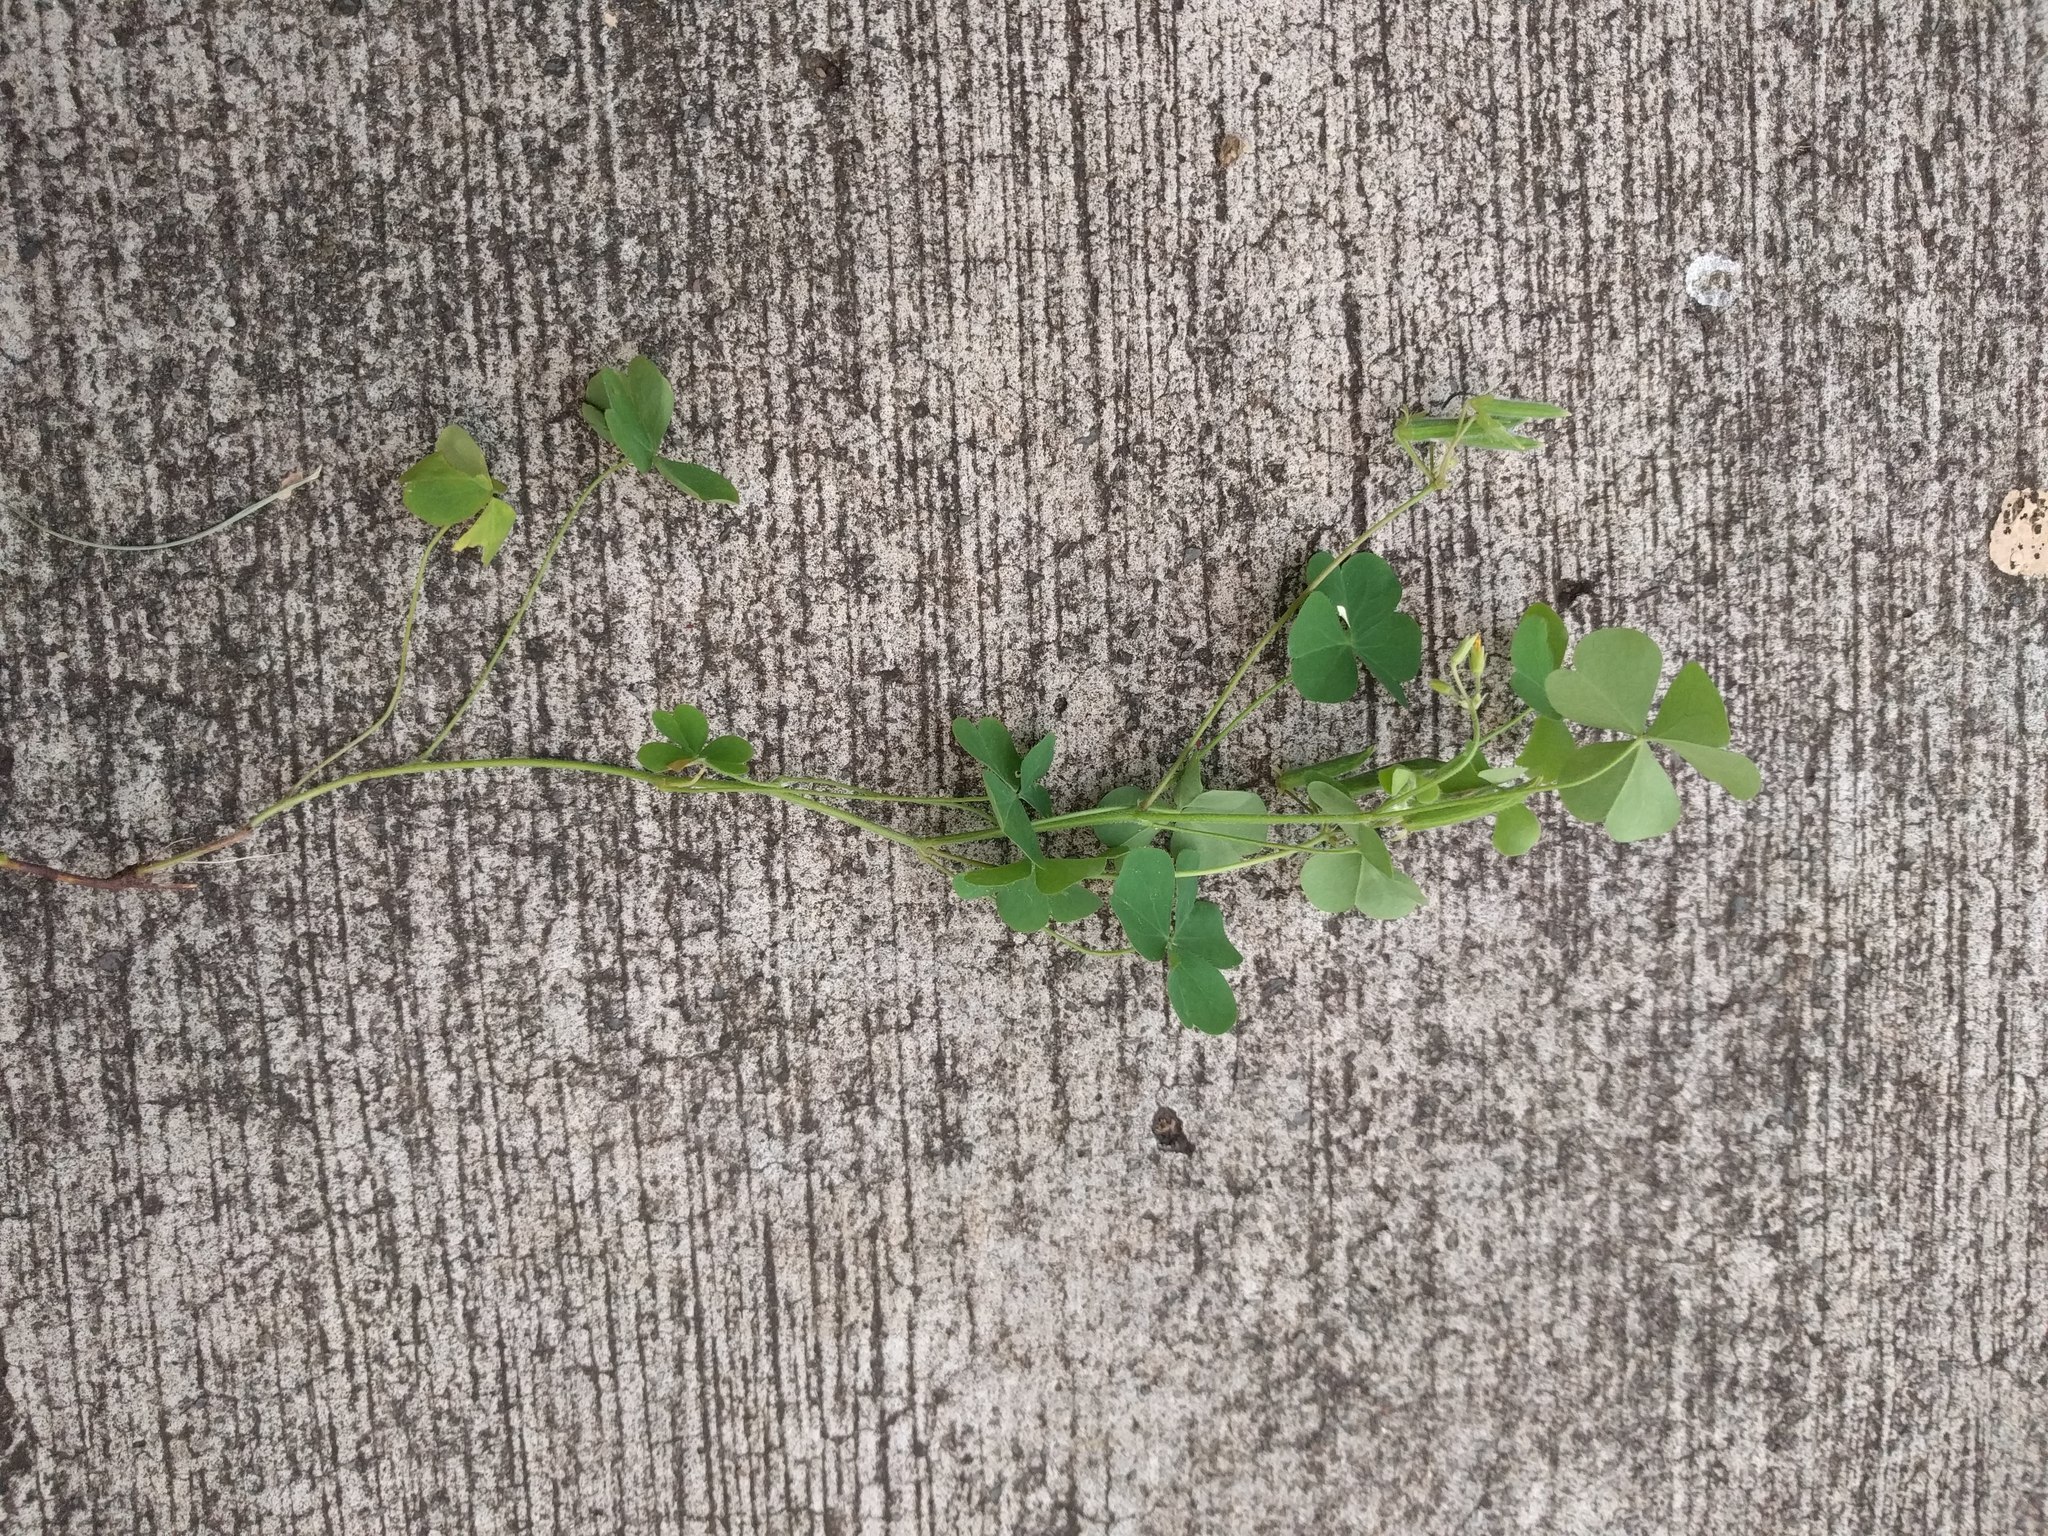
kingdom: Plantae
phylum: Tracheophyta
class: Magnoliopsida
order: Oxalidales
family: Oxalidaceae
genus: Oxalis
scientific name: Oxalis corniculata
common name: Procumbent yellow-sorrel
